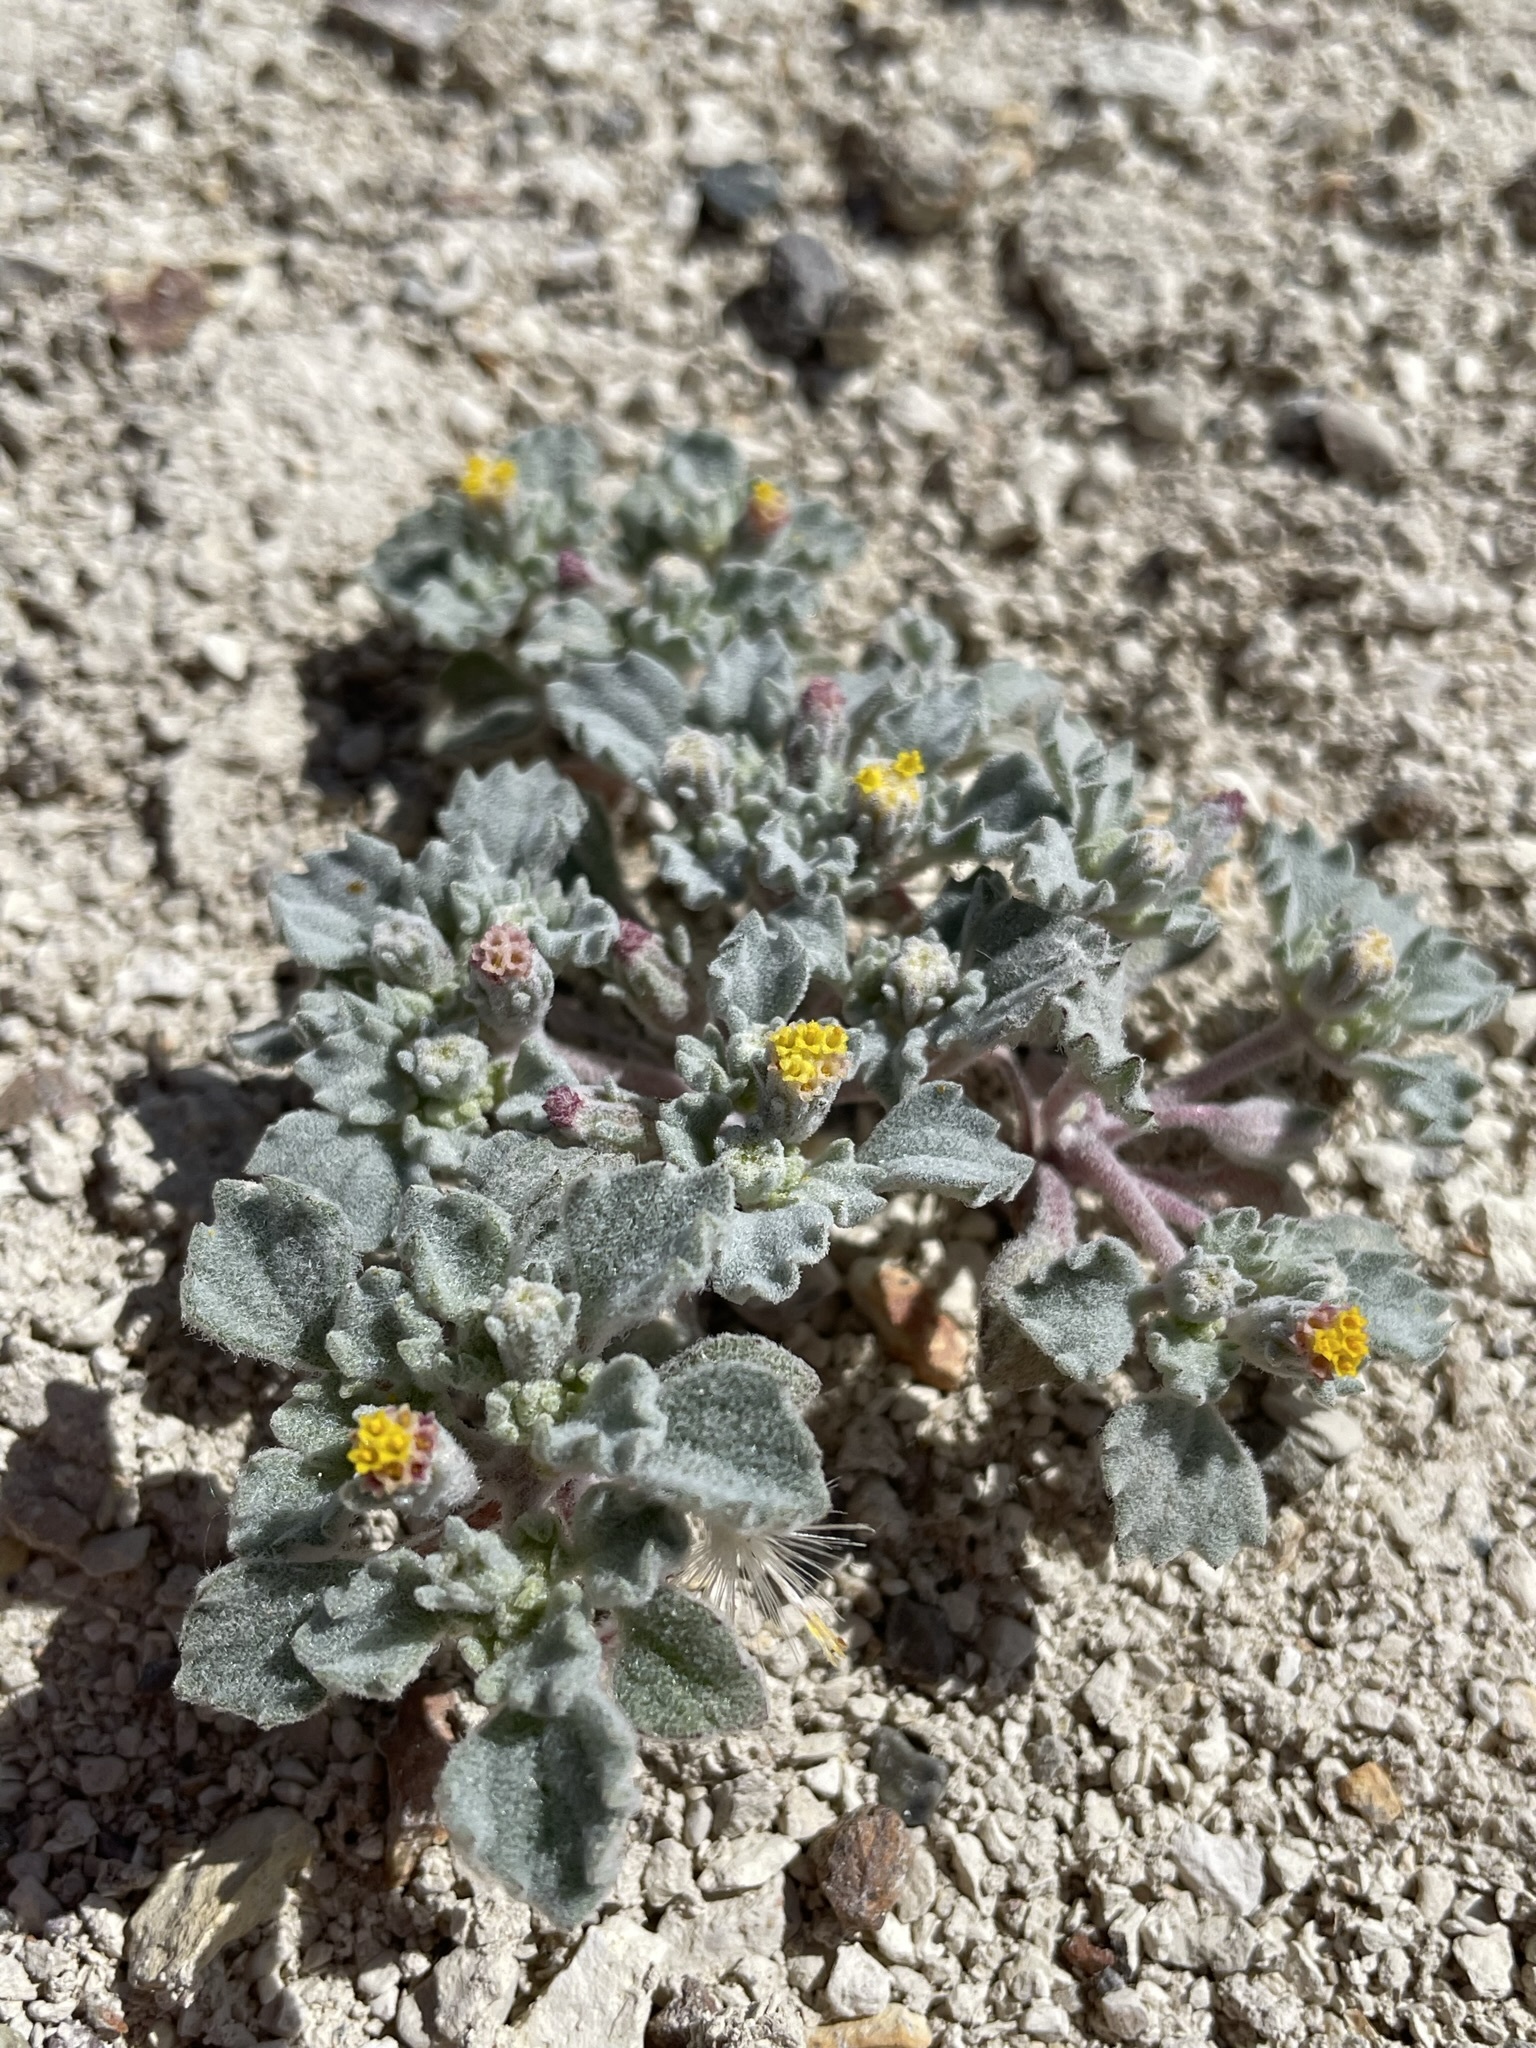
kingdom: Plantae
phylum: Tracheophyta
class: Magnoliopsida
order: Asterales
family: Asteraceae
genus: Psathyrotes
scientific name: Psathyrotes annua
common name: Mealy rosettes
